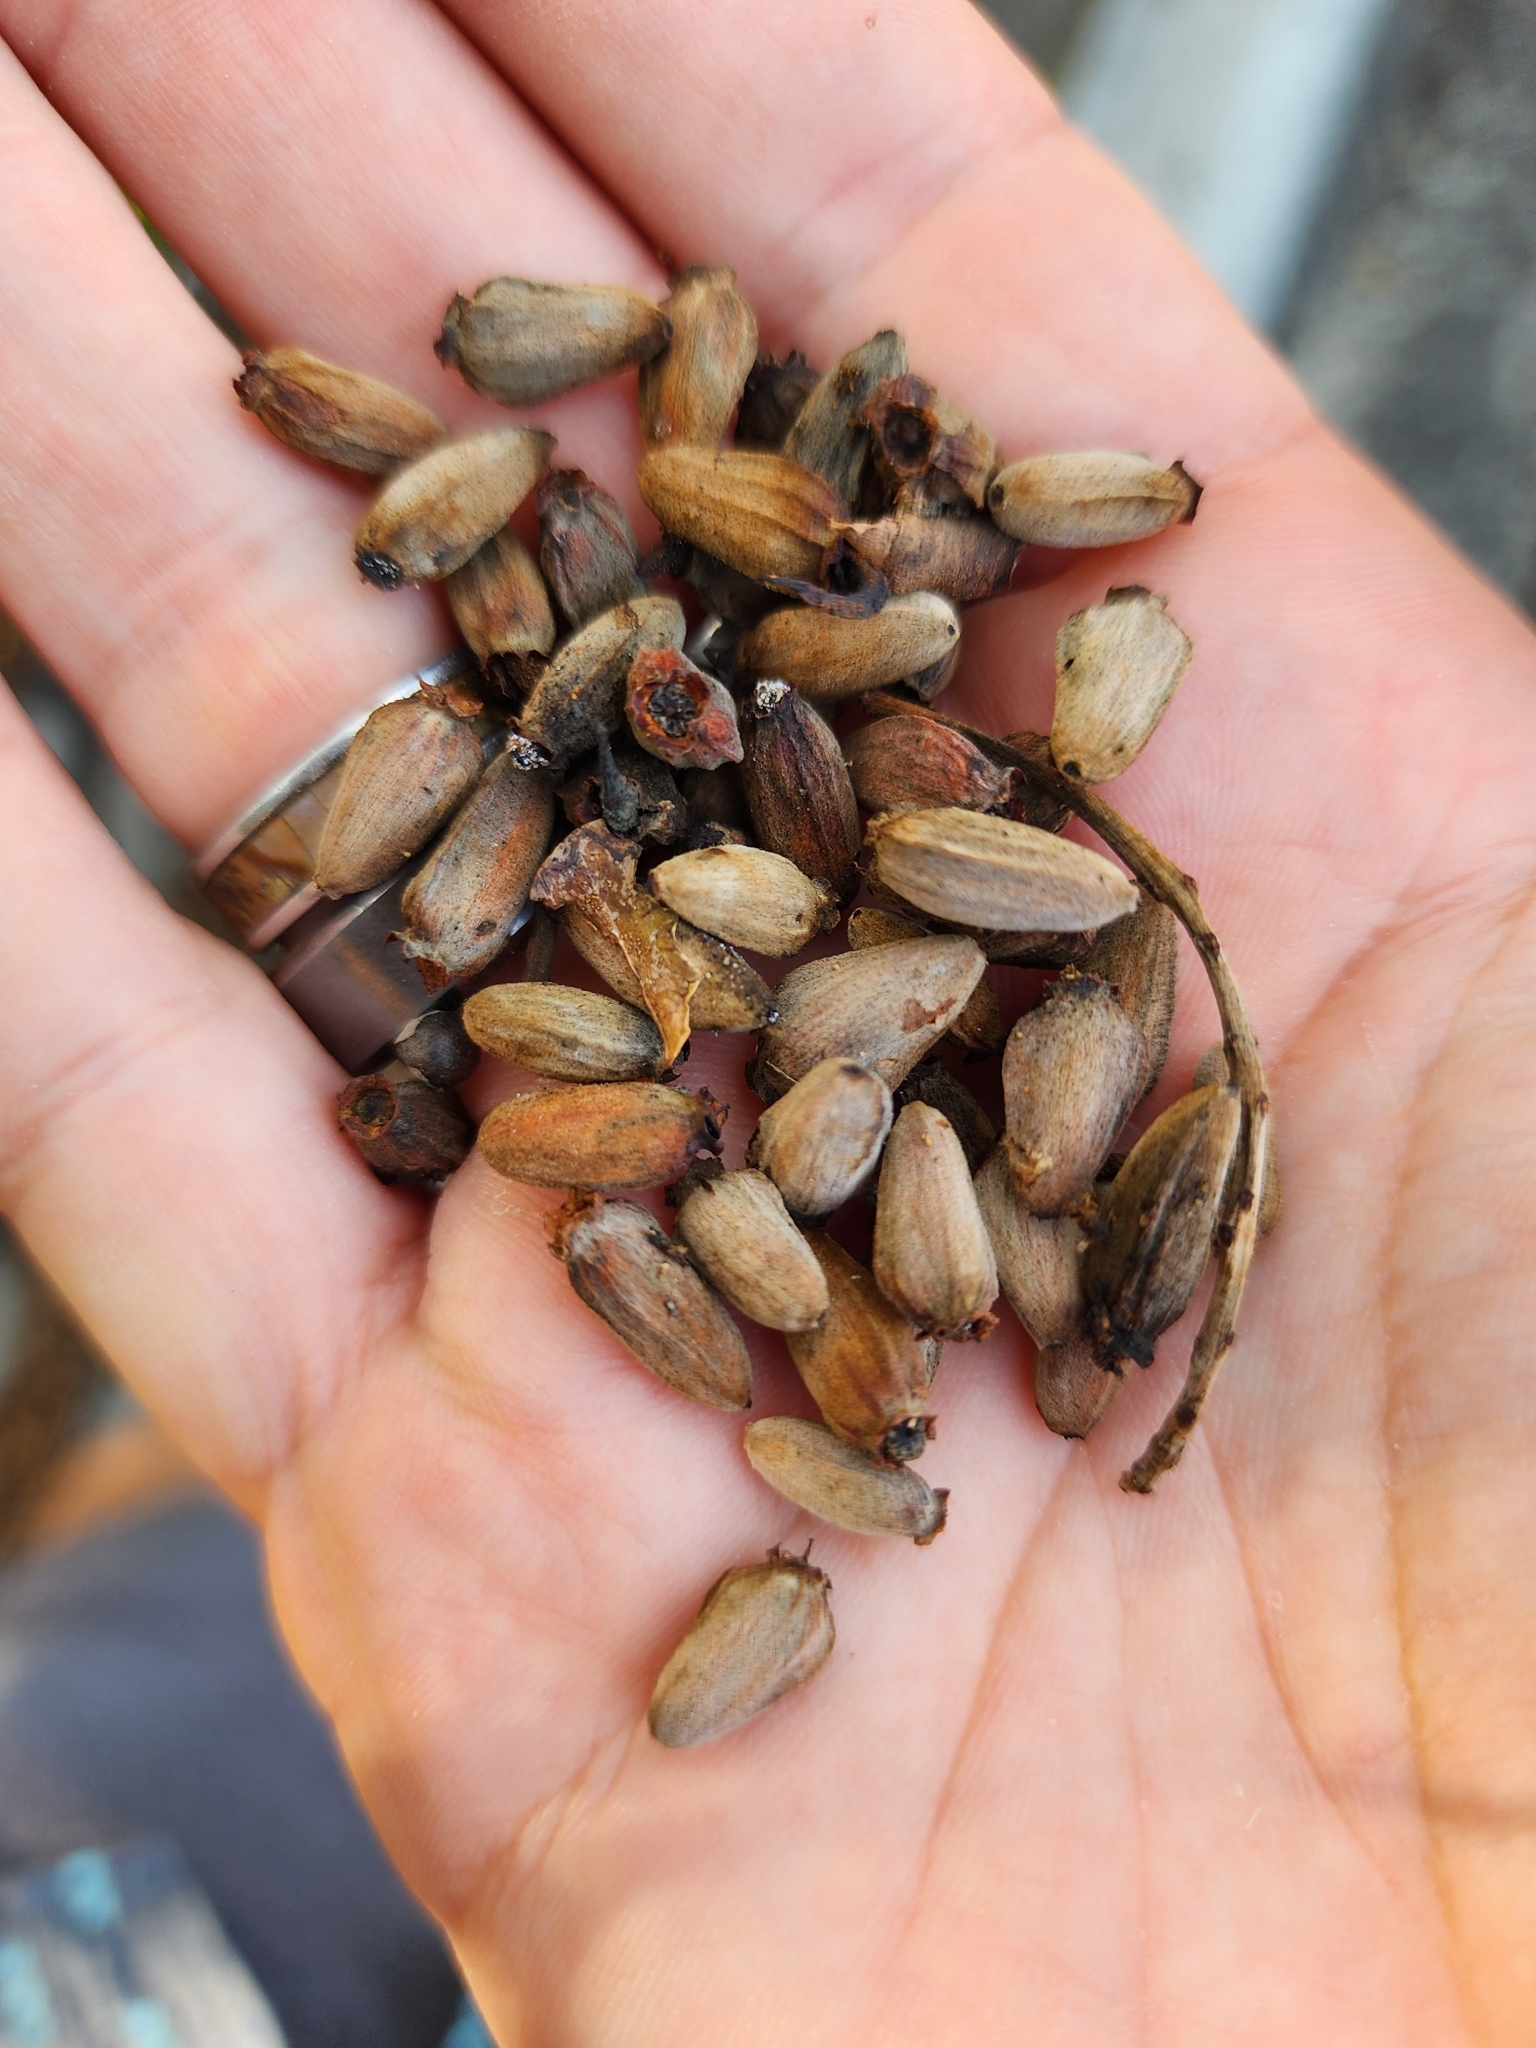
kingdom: Plantae
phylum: Tracheophyta
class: Magnoliopsida
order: Myrtales
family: Combretaceae
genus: Laguncularia
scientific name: Laguncularia racemosa
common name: White mangrove
